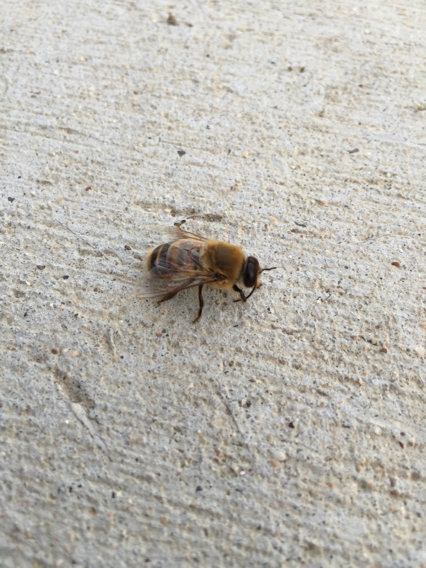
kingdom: Animalia
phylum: Arthropoda
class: Insecta
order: Hymenoptera
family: Apidae
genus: Apis
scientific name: Apis mellifera
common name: Honey bee
